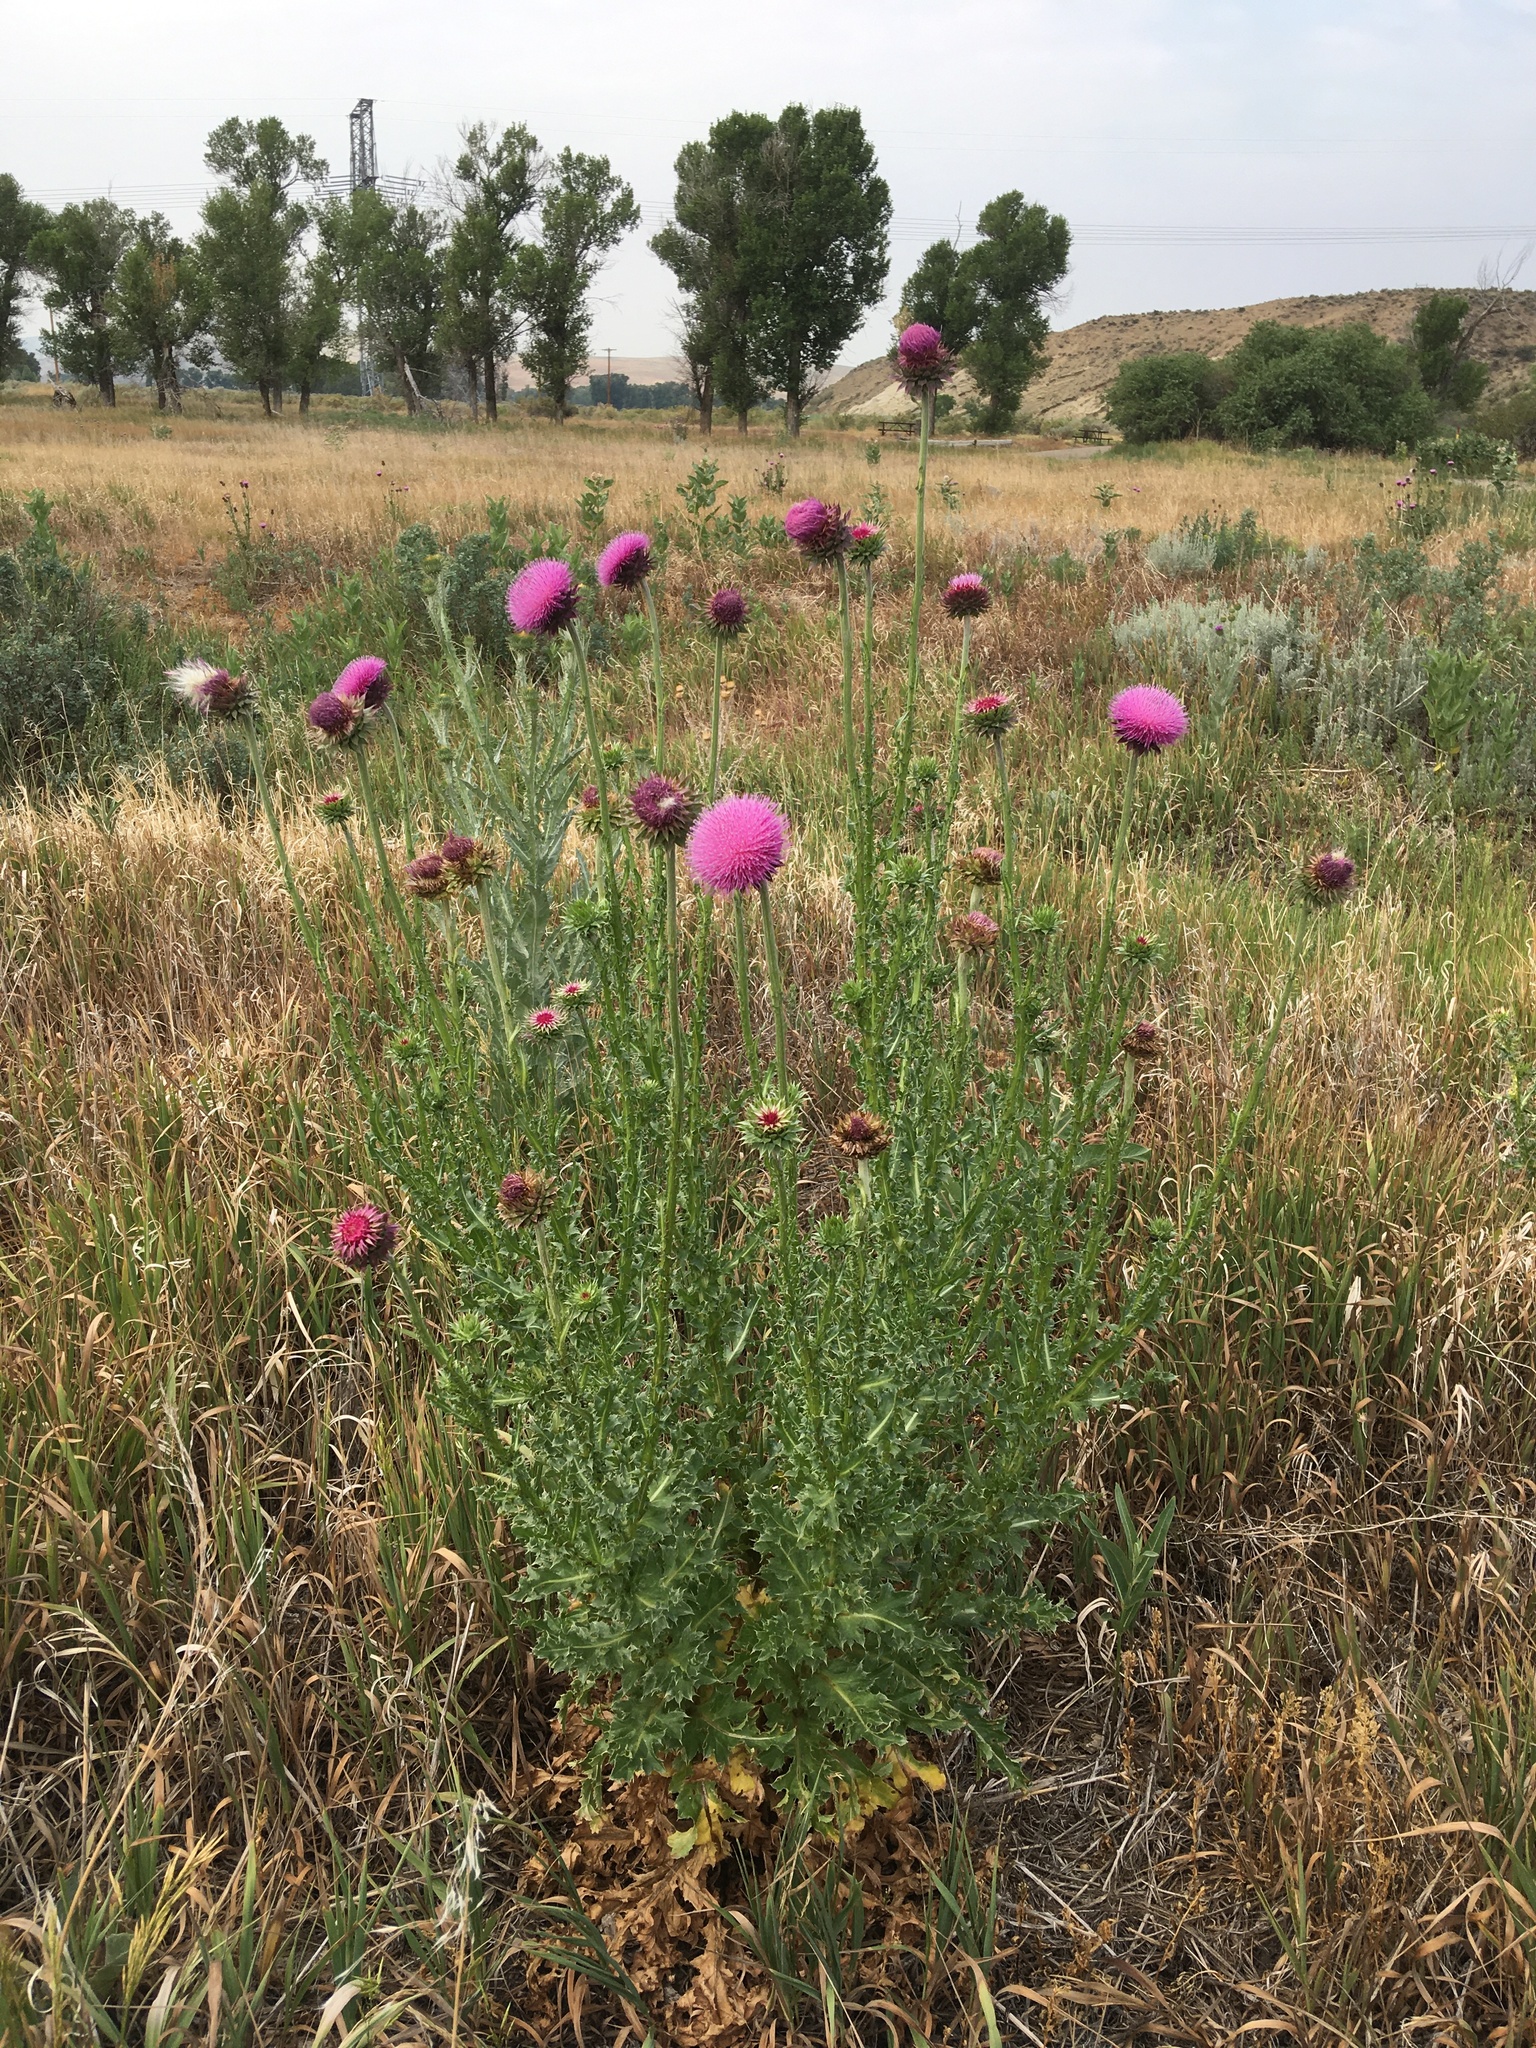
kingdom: Plantae
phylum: Tracheophyta
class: Magnoliopsida
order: Asterales
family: Asteraceae
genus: Carduus
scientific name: Carduus nutans
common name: Musk thistle
